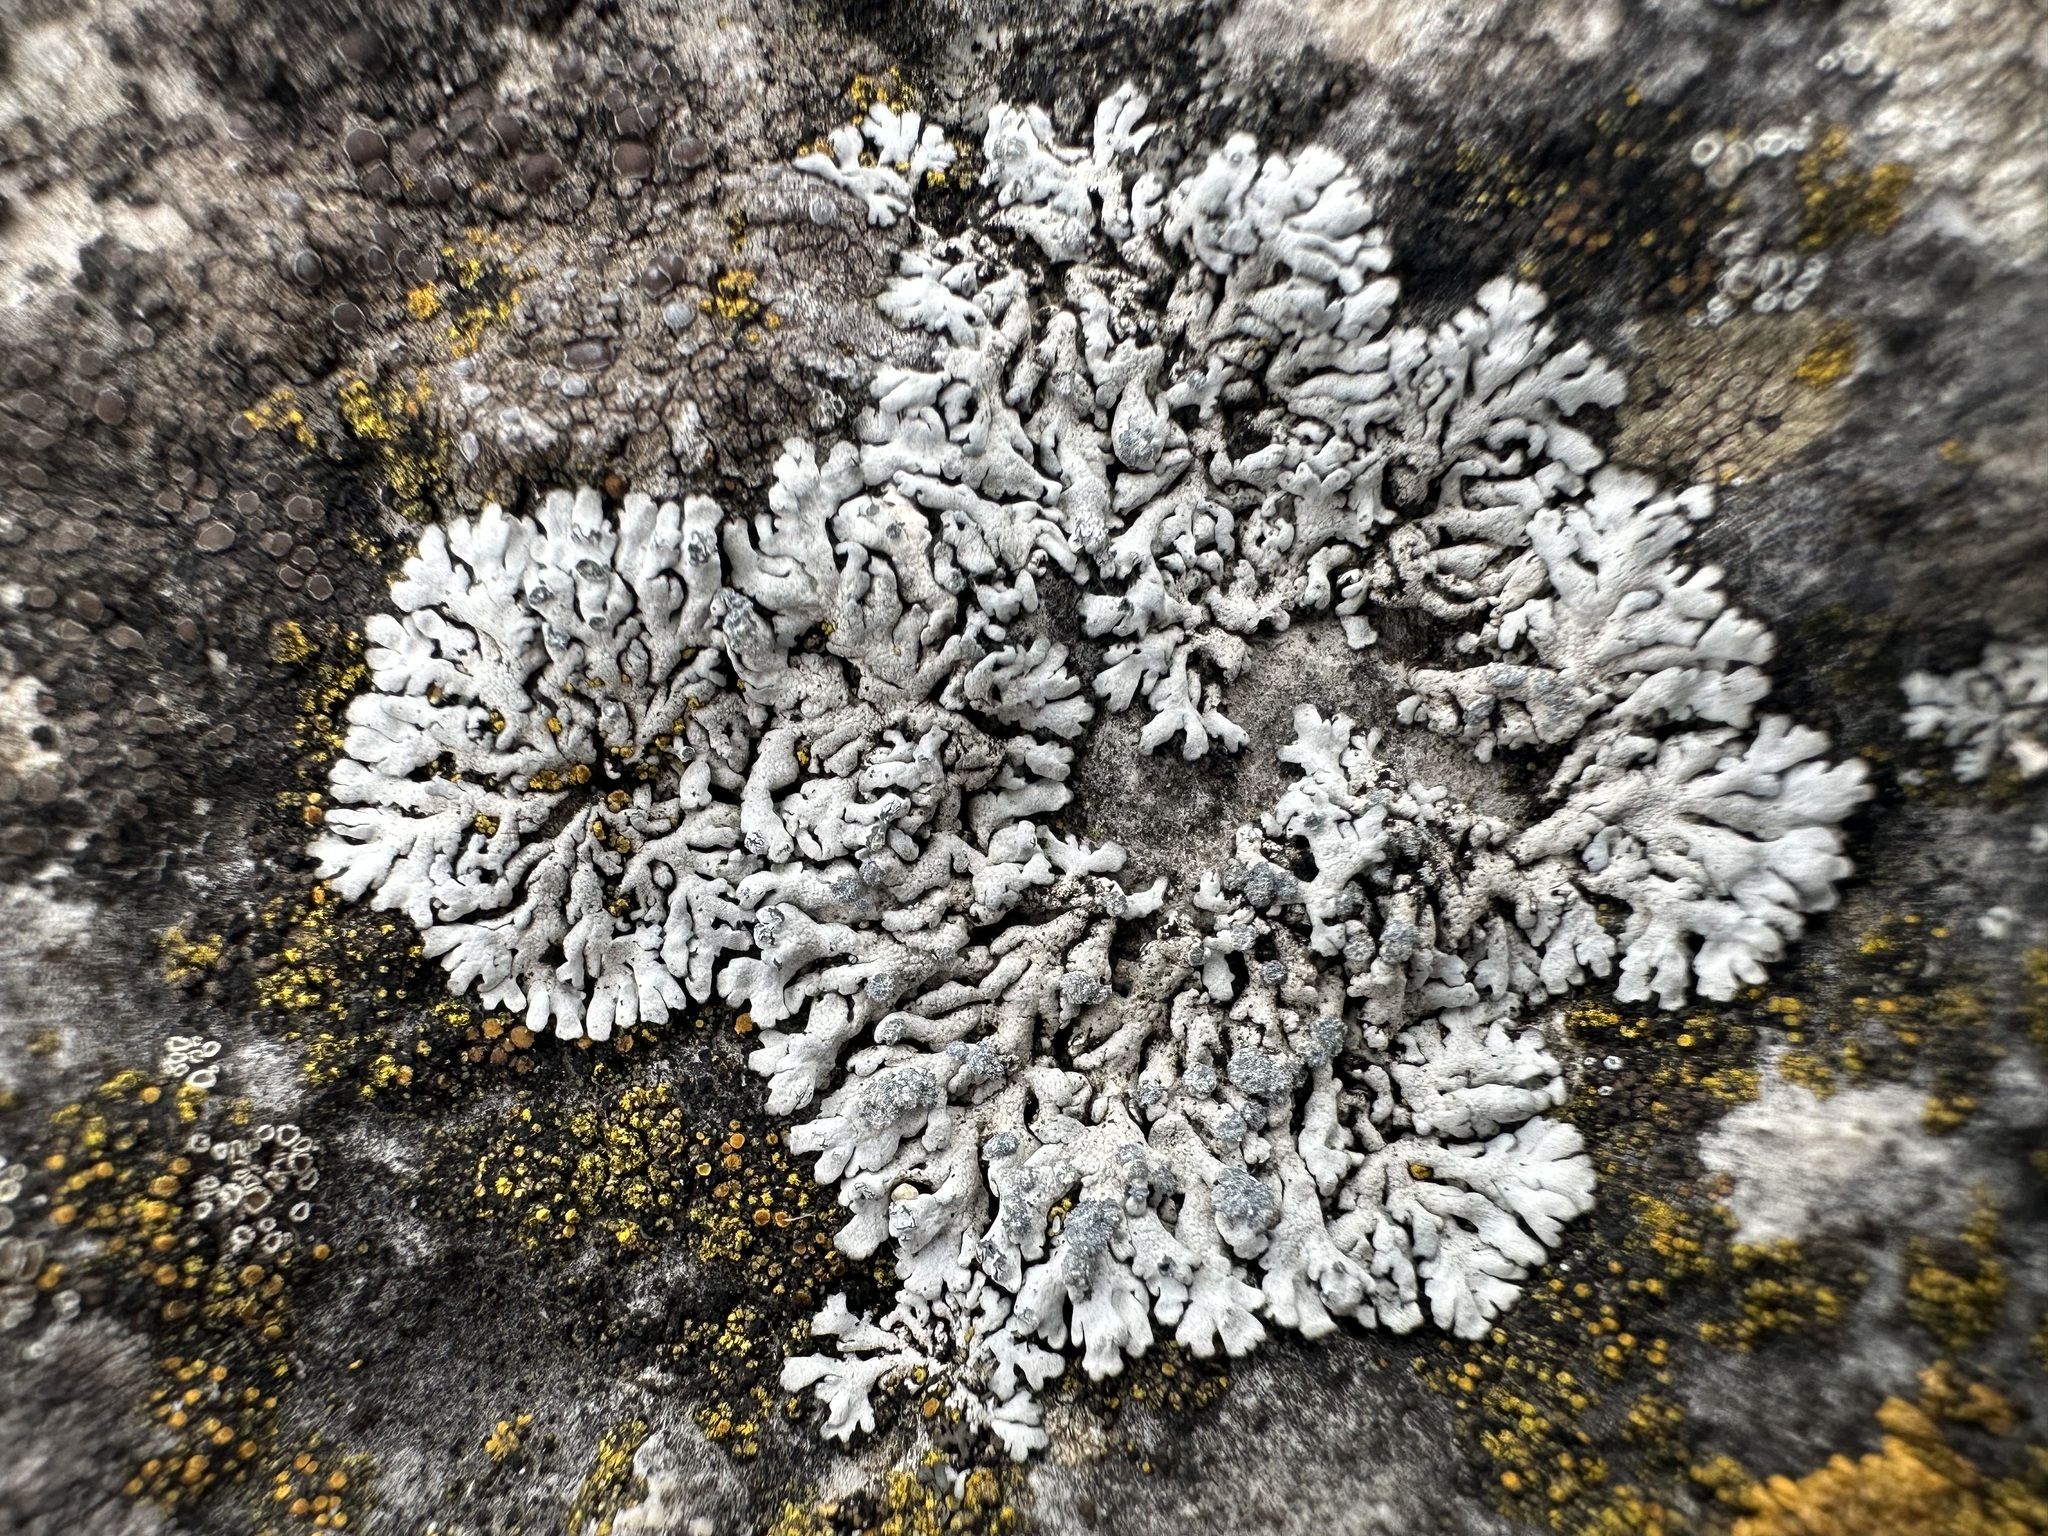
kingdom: Fungi
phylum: Ascomycota
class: Lecanoromycetes
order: Caliciales
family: Physciaceae
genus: Physcia
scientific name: Physcia caesia
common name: Blue-gray rosette lichen
